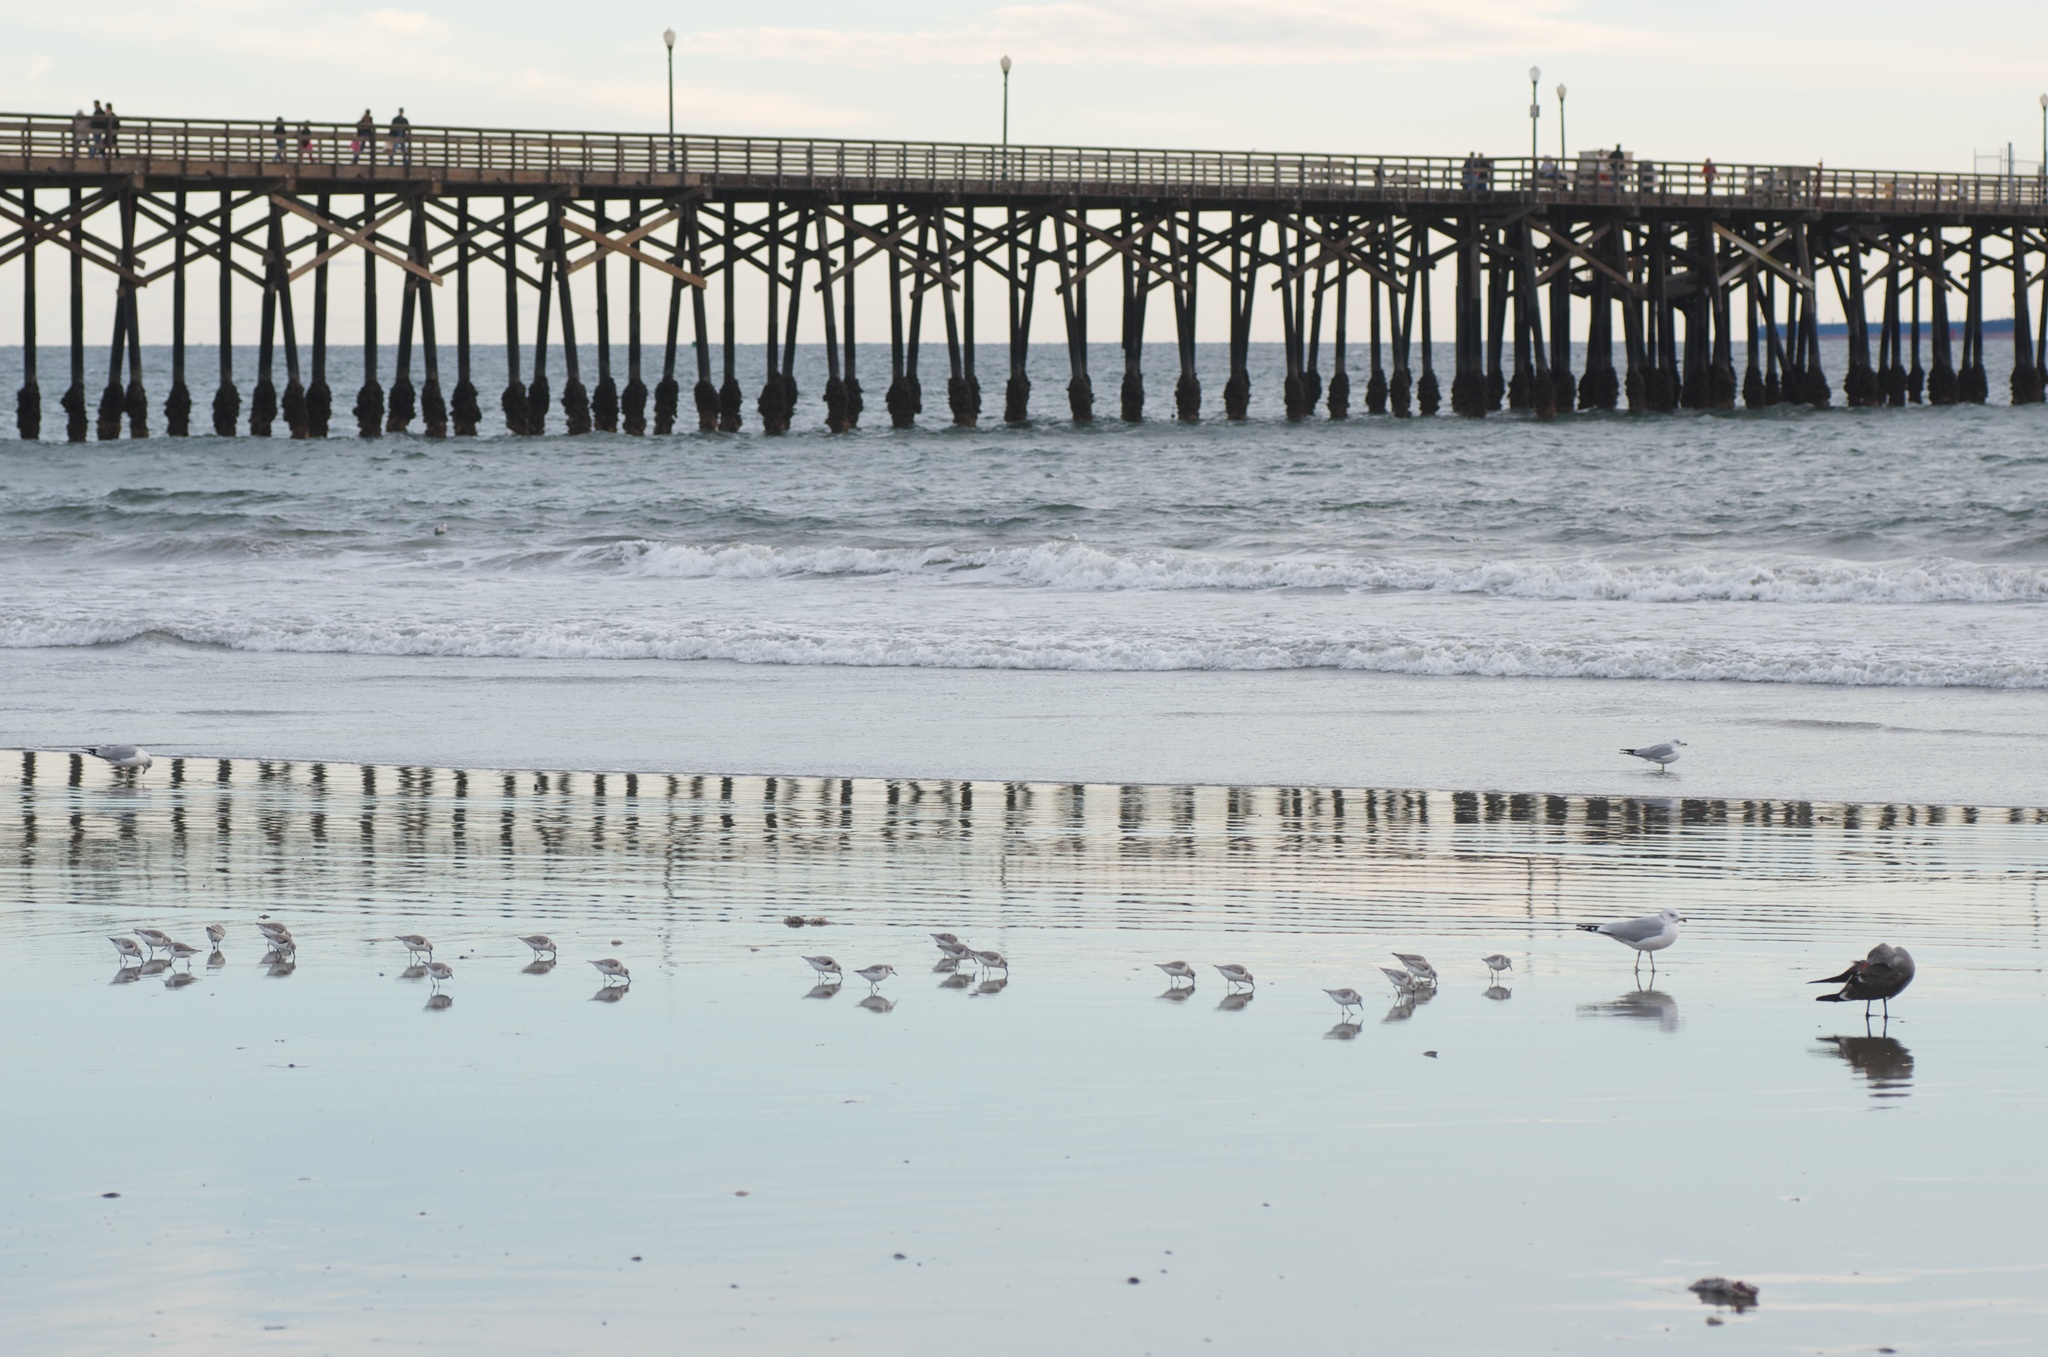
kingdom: Animalia
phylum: Chordata
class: Aves
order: Charadriiformes
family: Scolopacidae
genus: Calidris
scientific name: Calidris alba
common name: Sanderling
